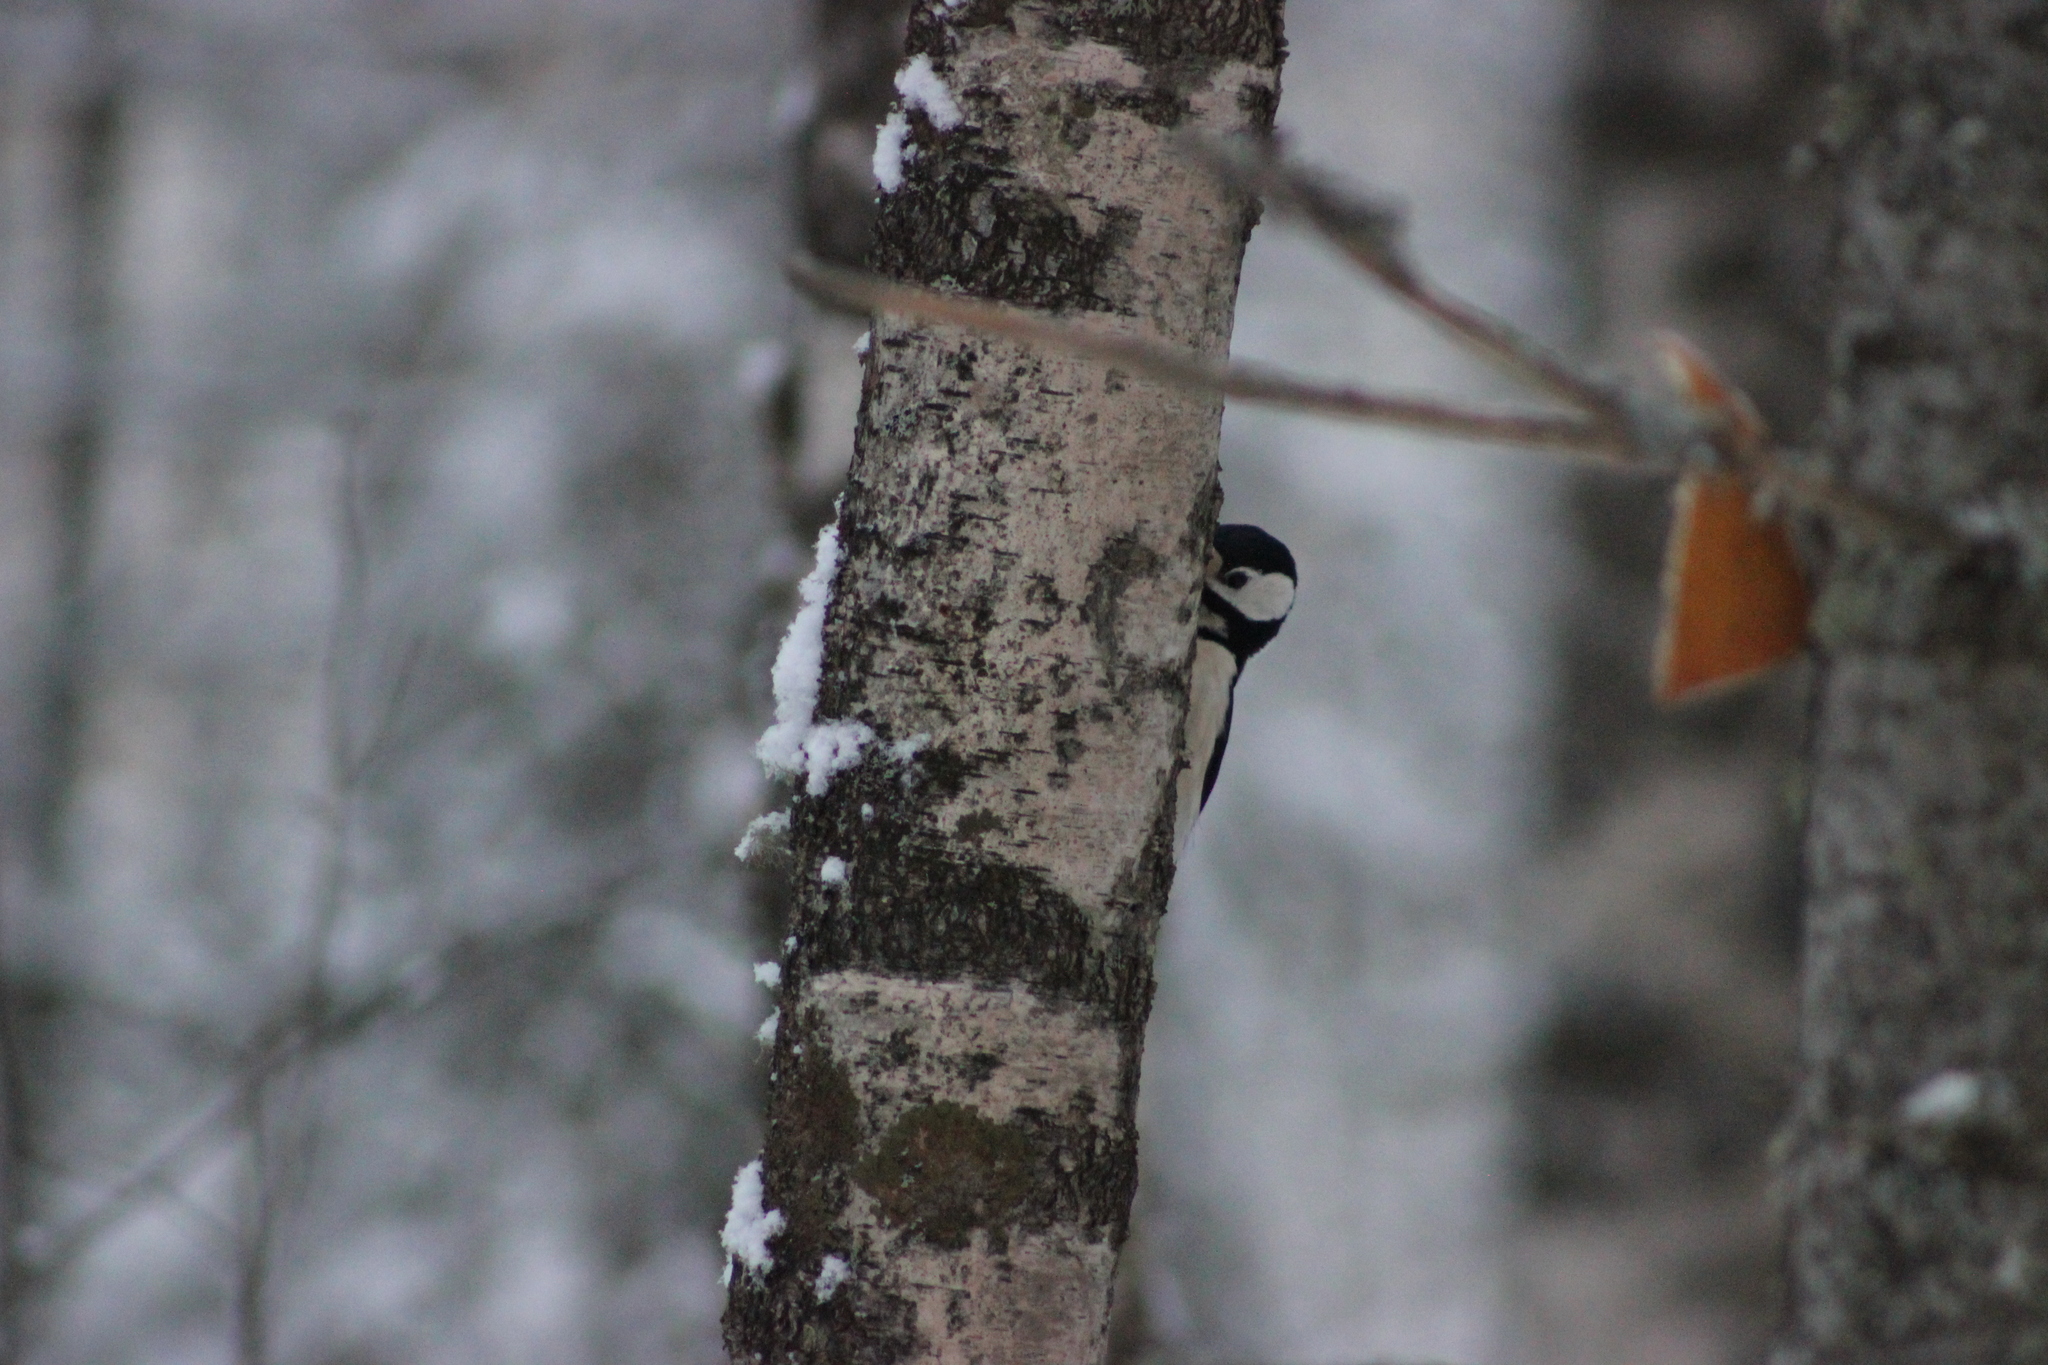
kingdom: Animalia
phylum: Chordata
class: Aves
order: Piciformes
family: Picidae
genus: Dendrocopos
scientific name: Dendrocopos major
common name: Great spotted woodpecker
